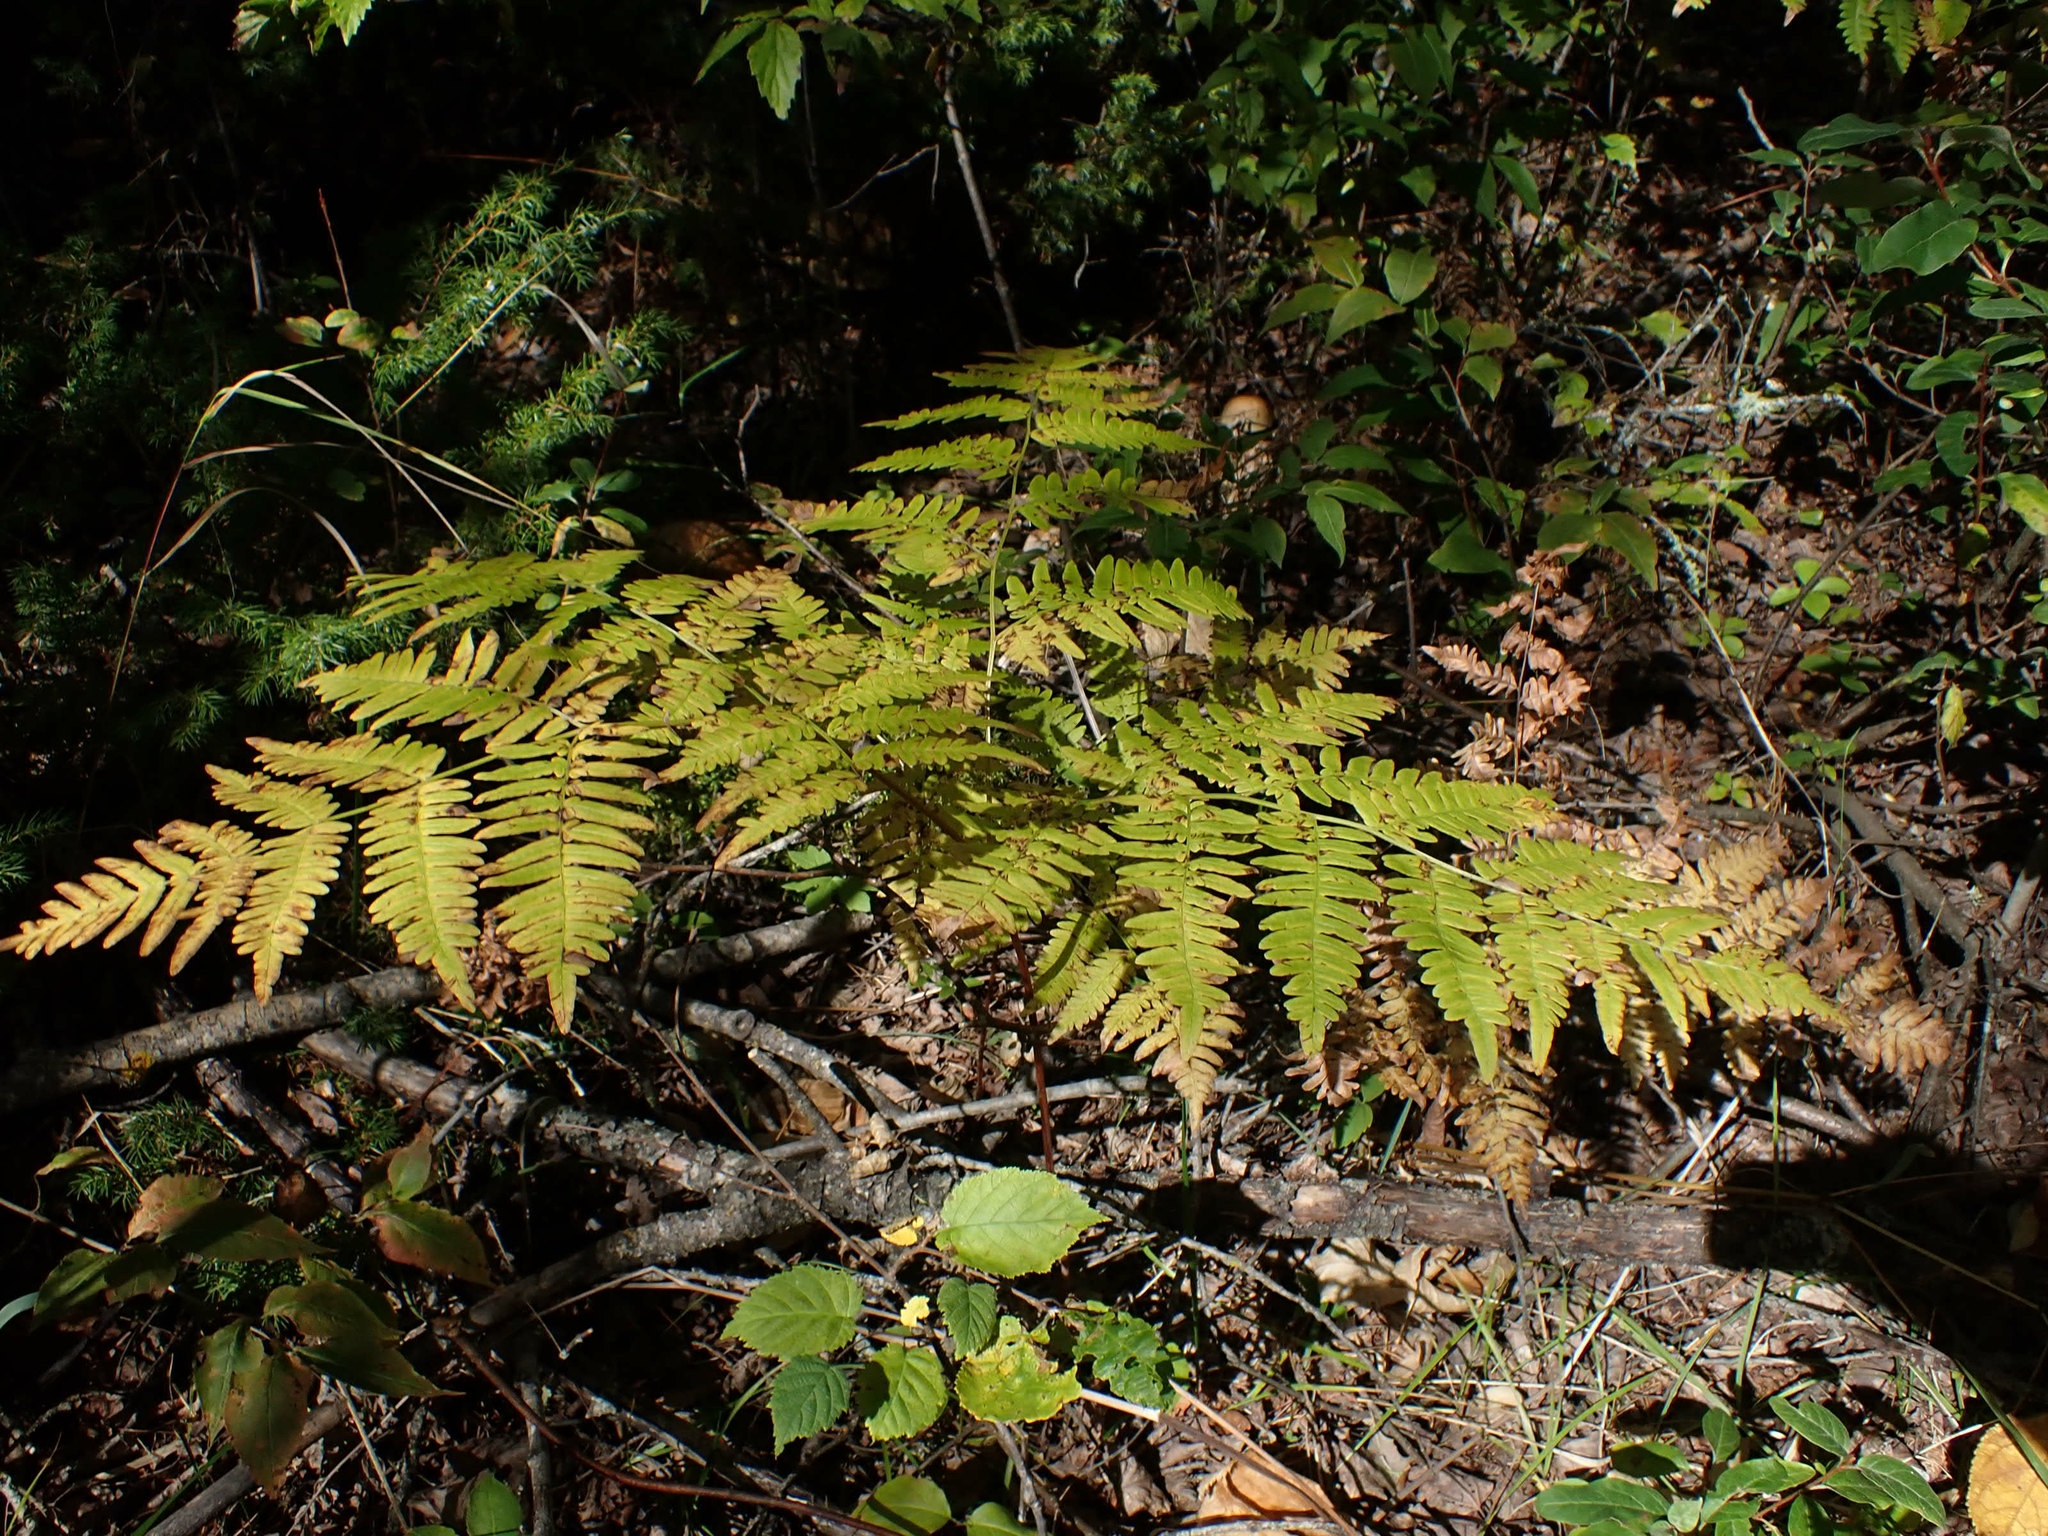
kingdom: Plantae
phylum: Tracheophyta
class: Polypodiopsida
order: Polypodiales
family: Dennstaedtiaceae
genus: Pteridium
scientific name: Pteridium aquilinum
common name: Bracken
